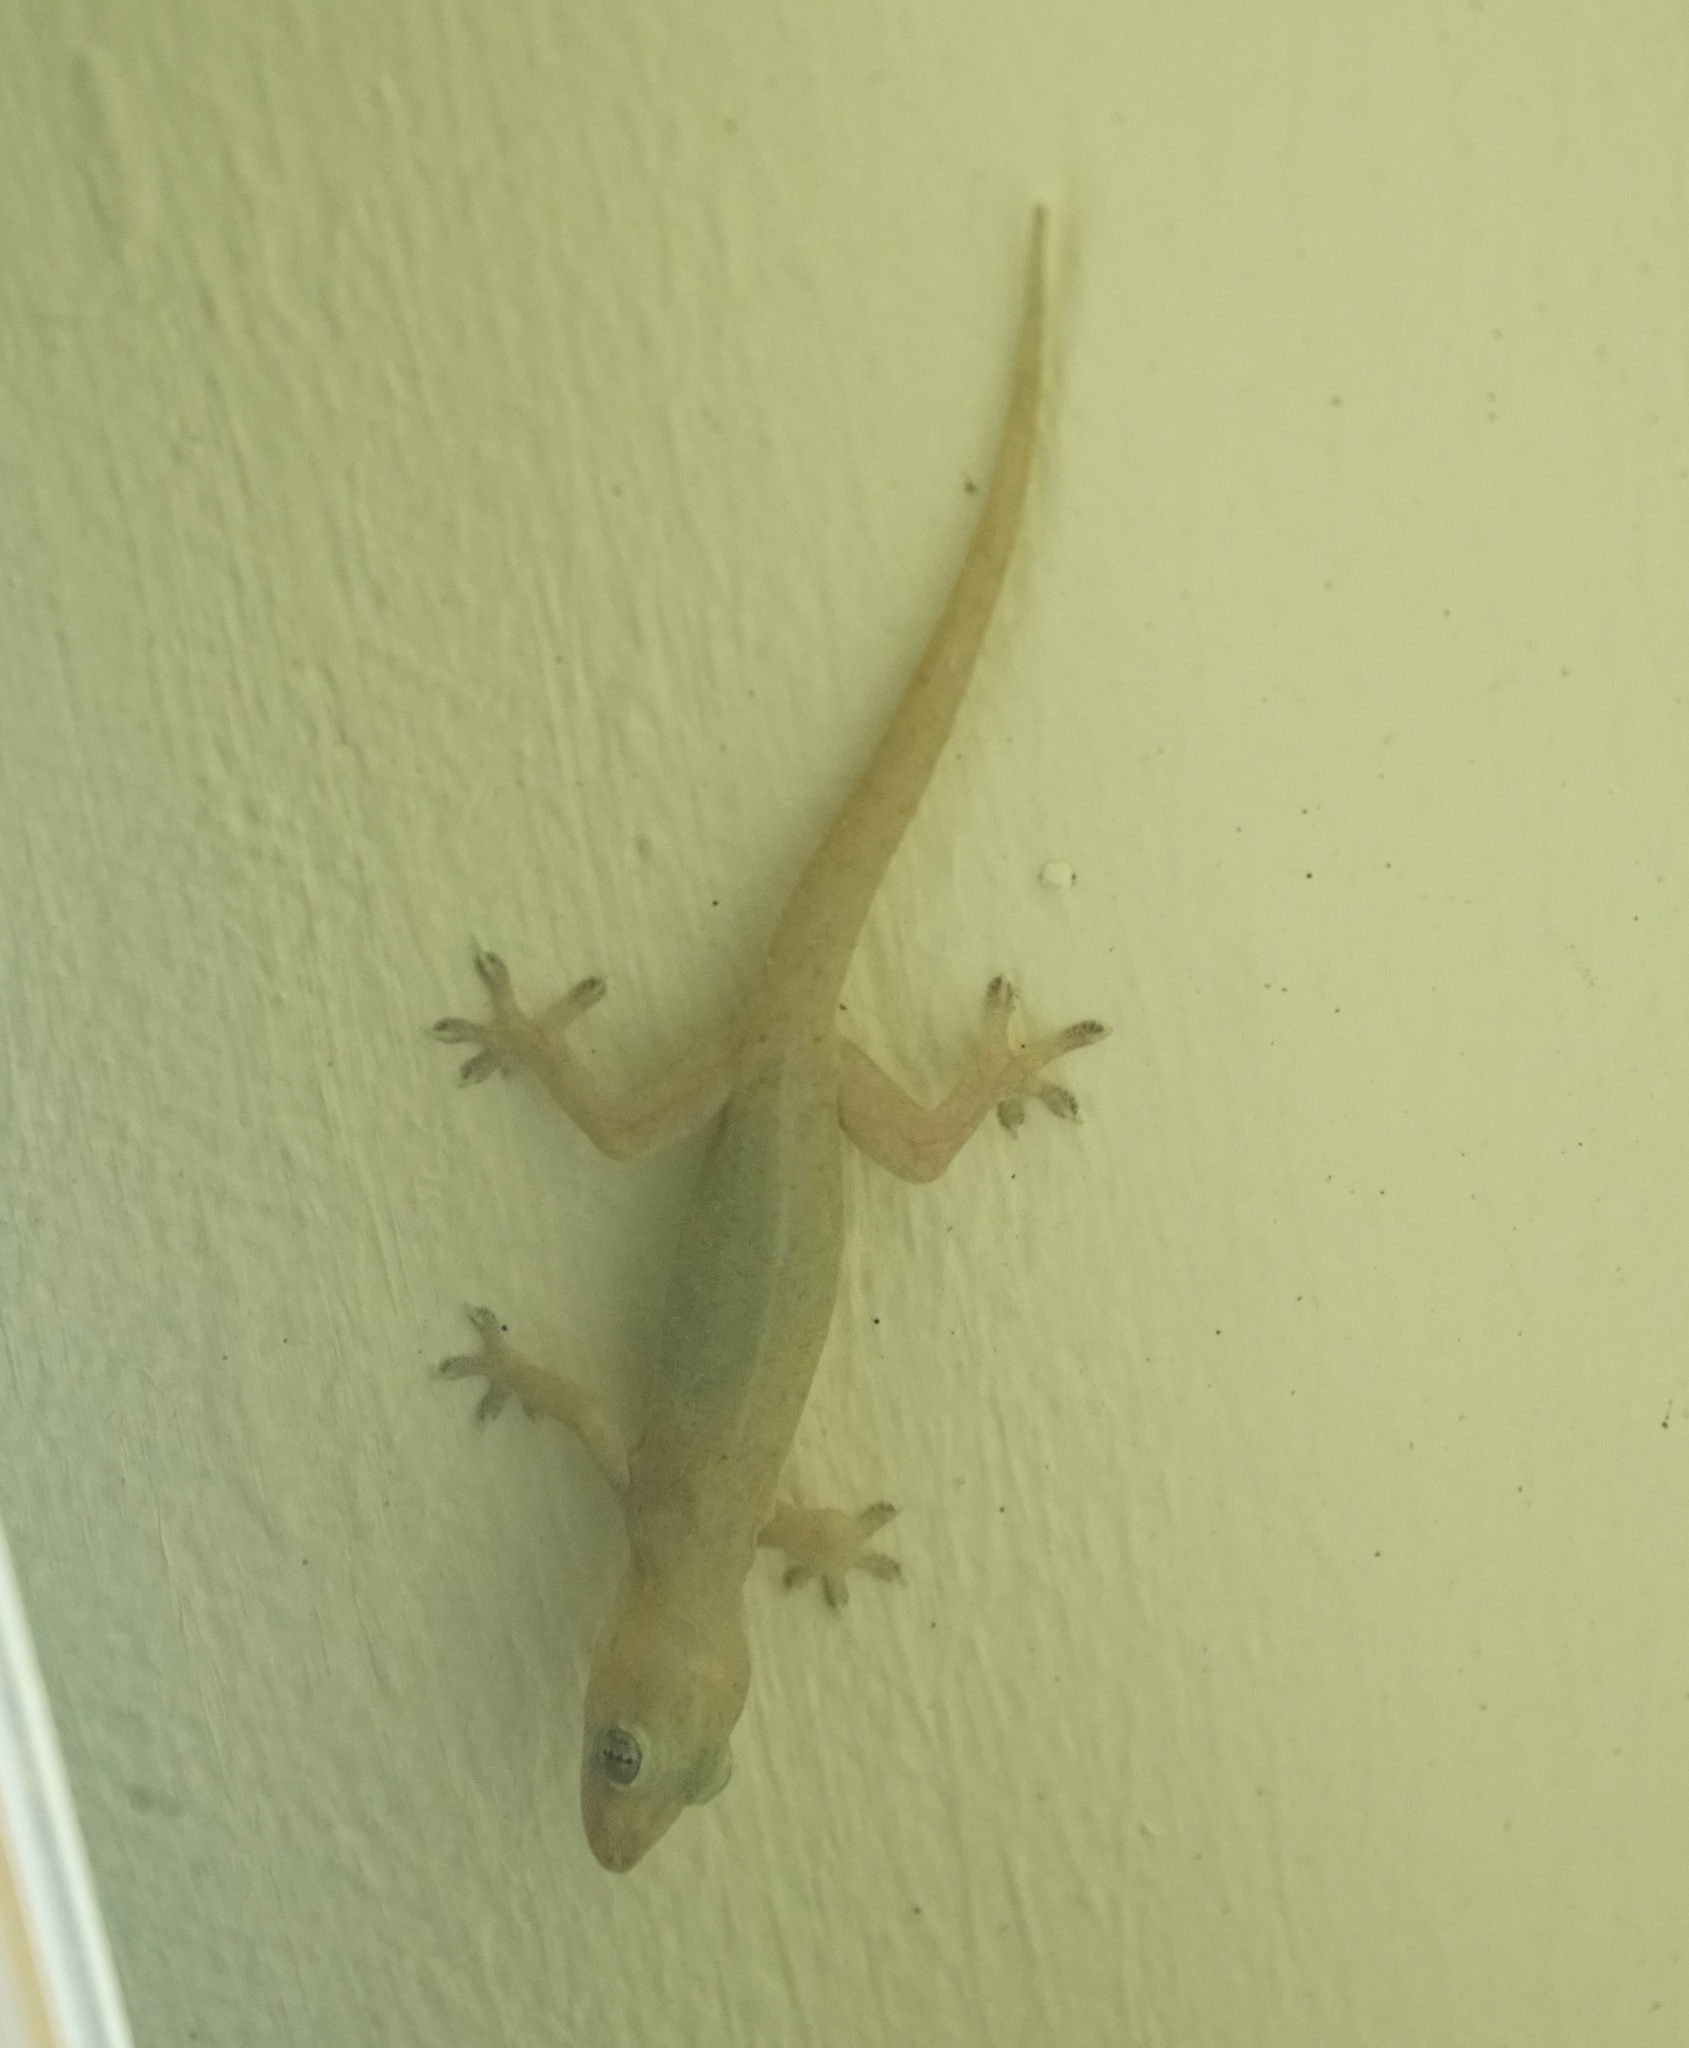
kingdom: Animalia
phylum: Chordata
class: Squamata
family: Gekkonidae
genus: Hemidactylus
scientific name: Hemidactylus frenatus
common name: Common house gecko
